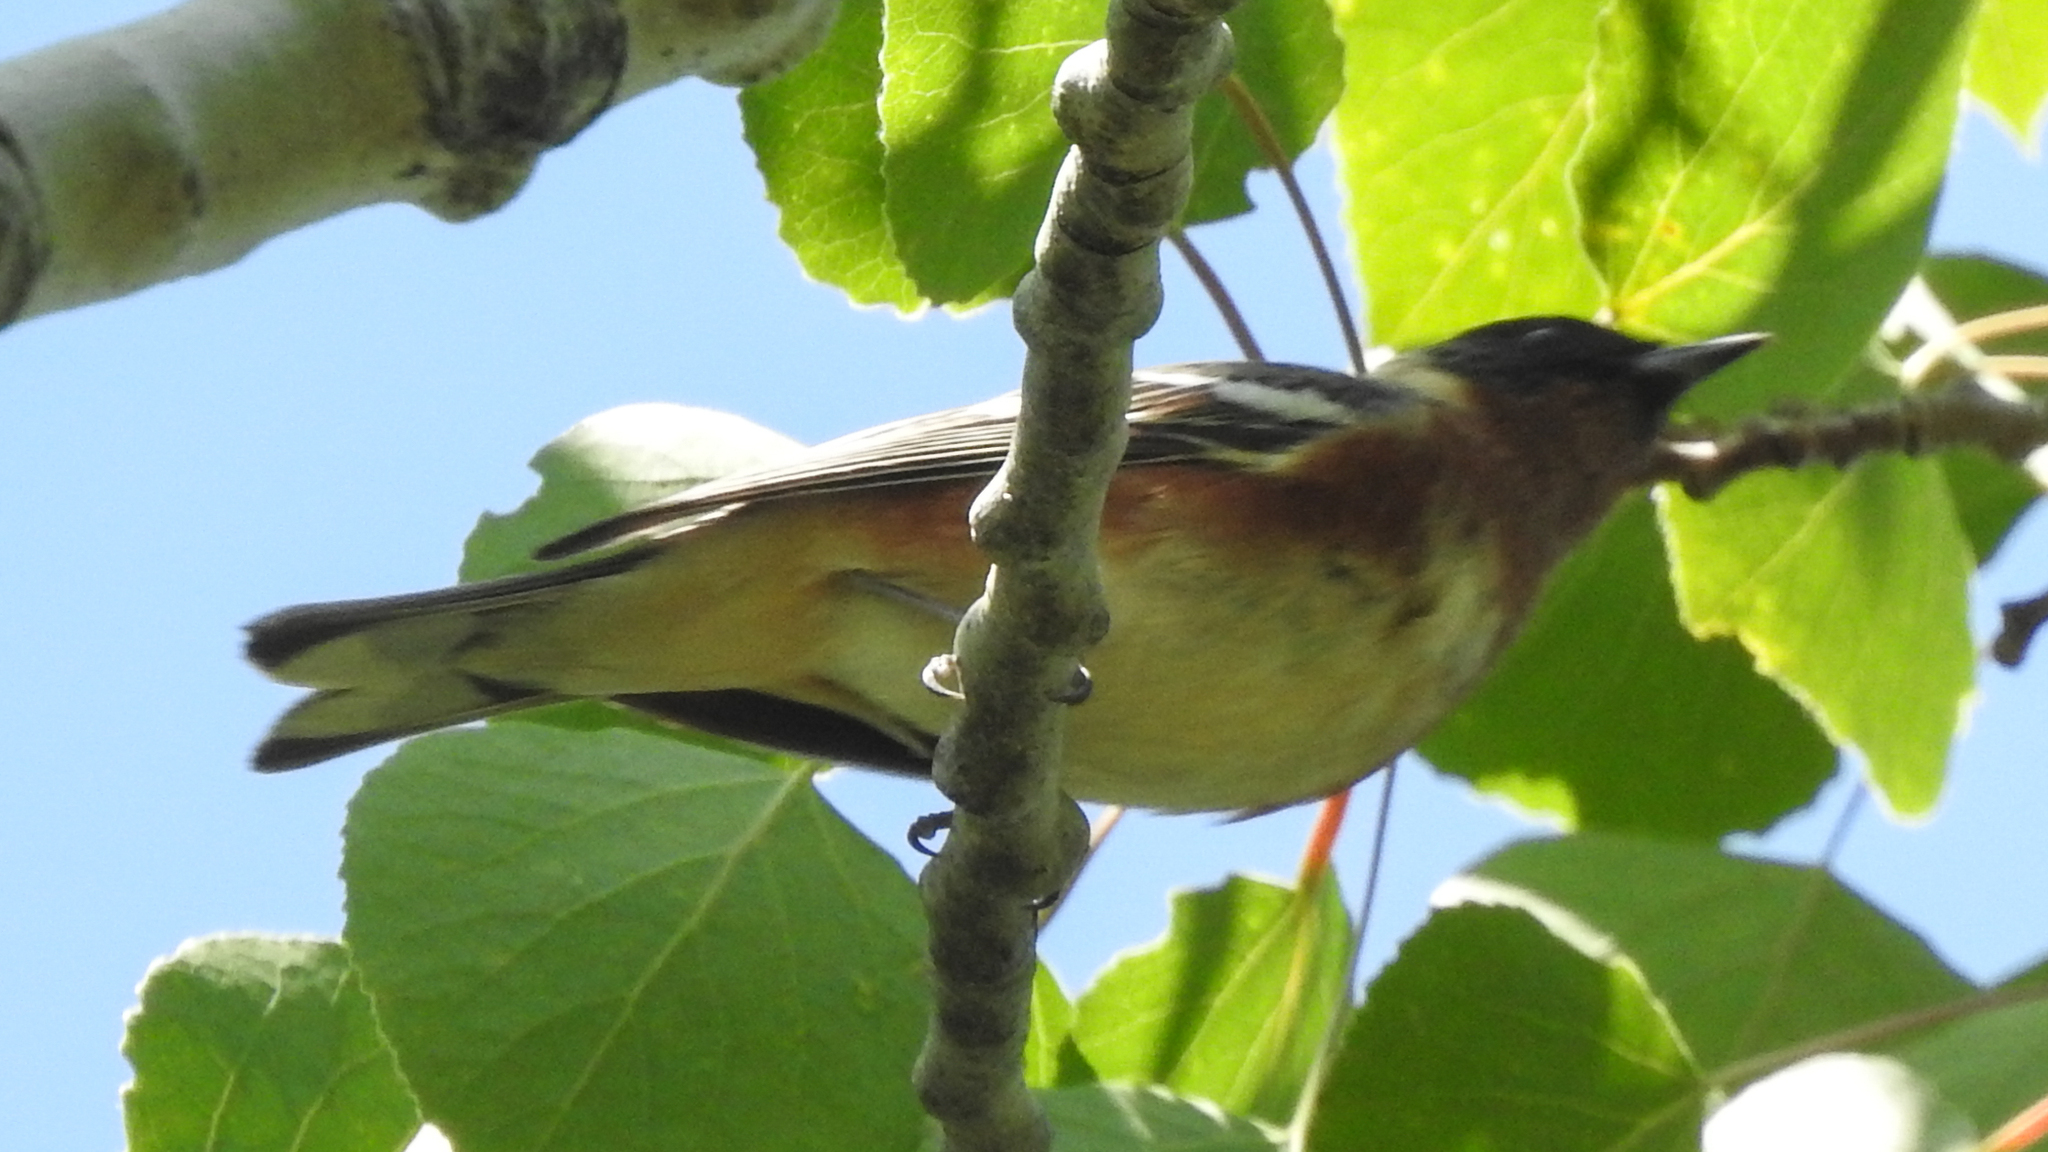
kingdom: Animalia
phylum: Chordata
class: Aves
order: Passeriformes
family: Parulidae
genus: Setophaga
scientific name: Setophaga castanea
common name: Bay-breasted warbler
